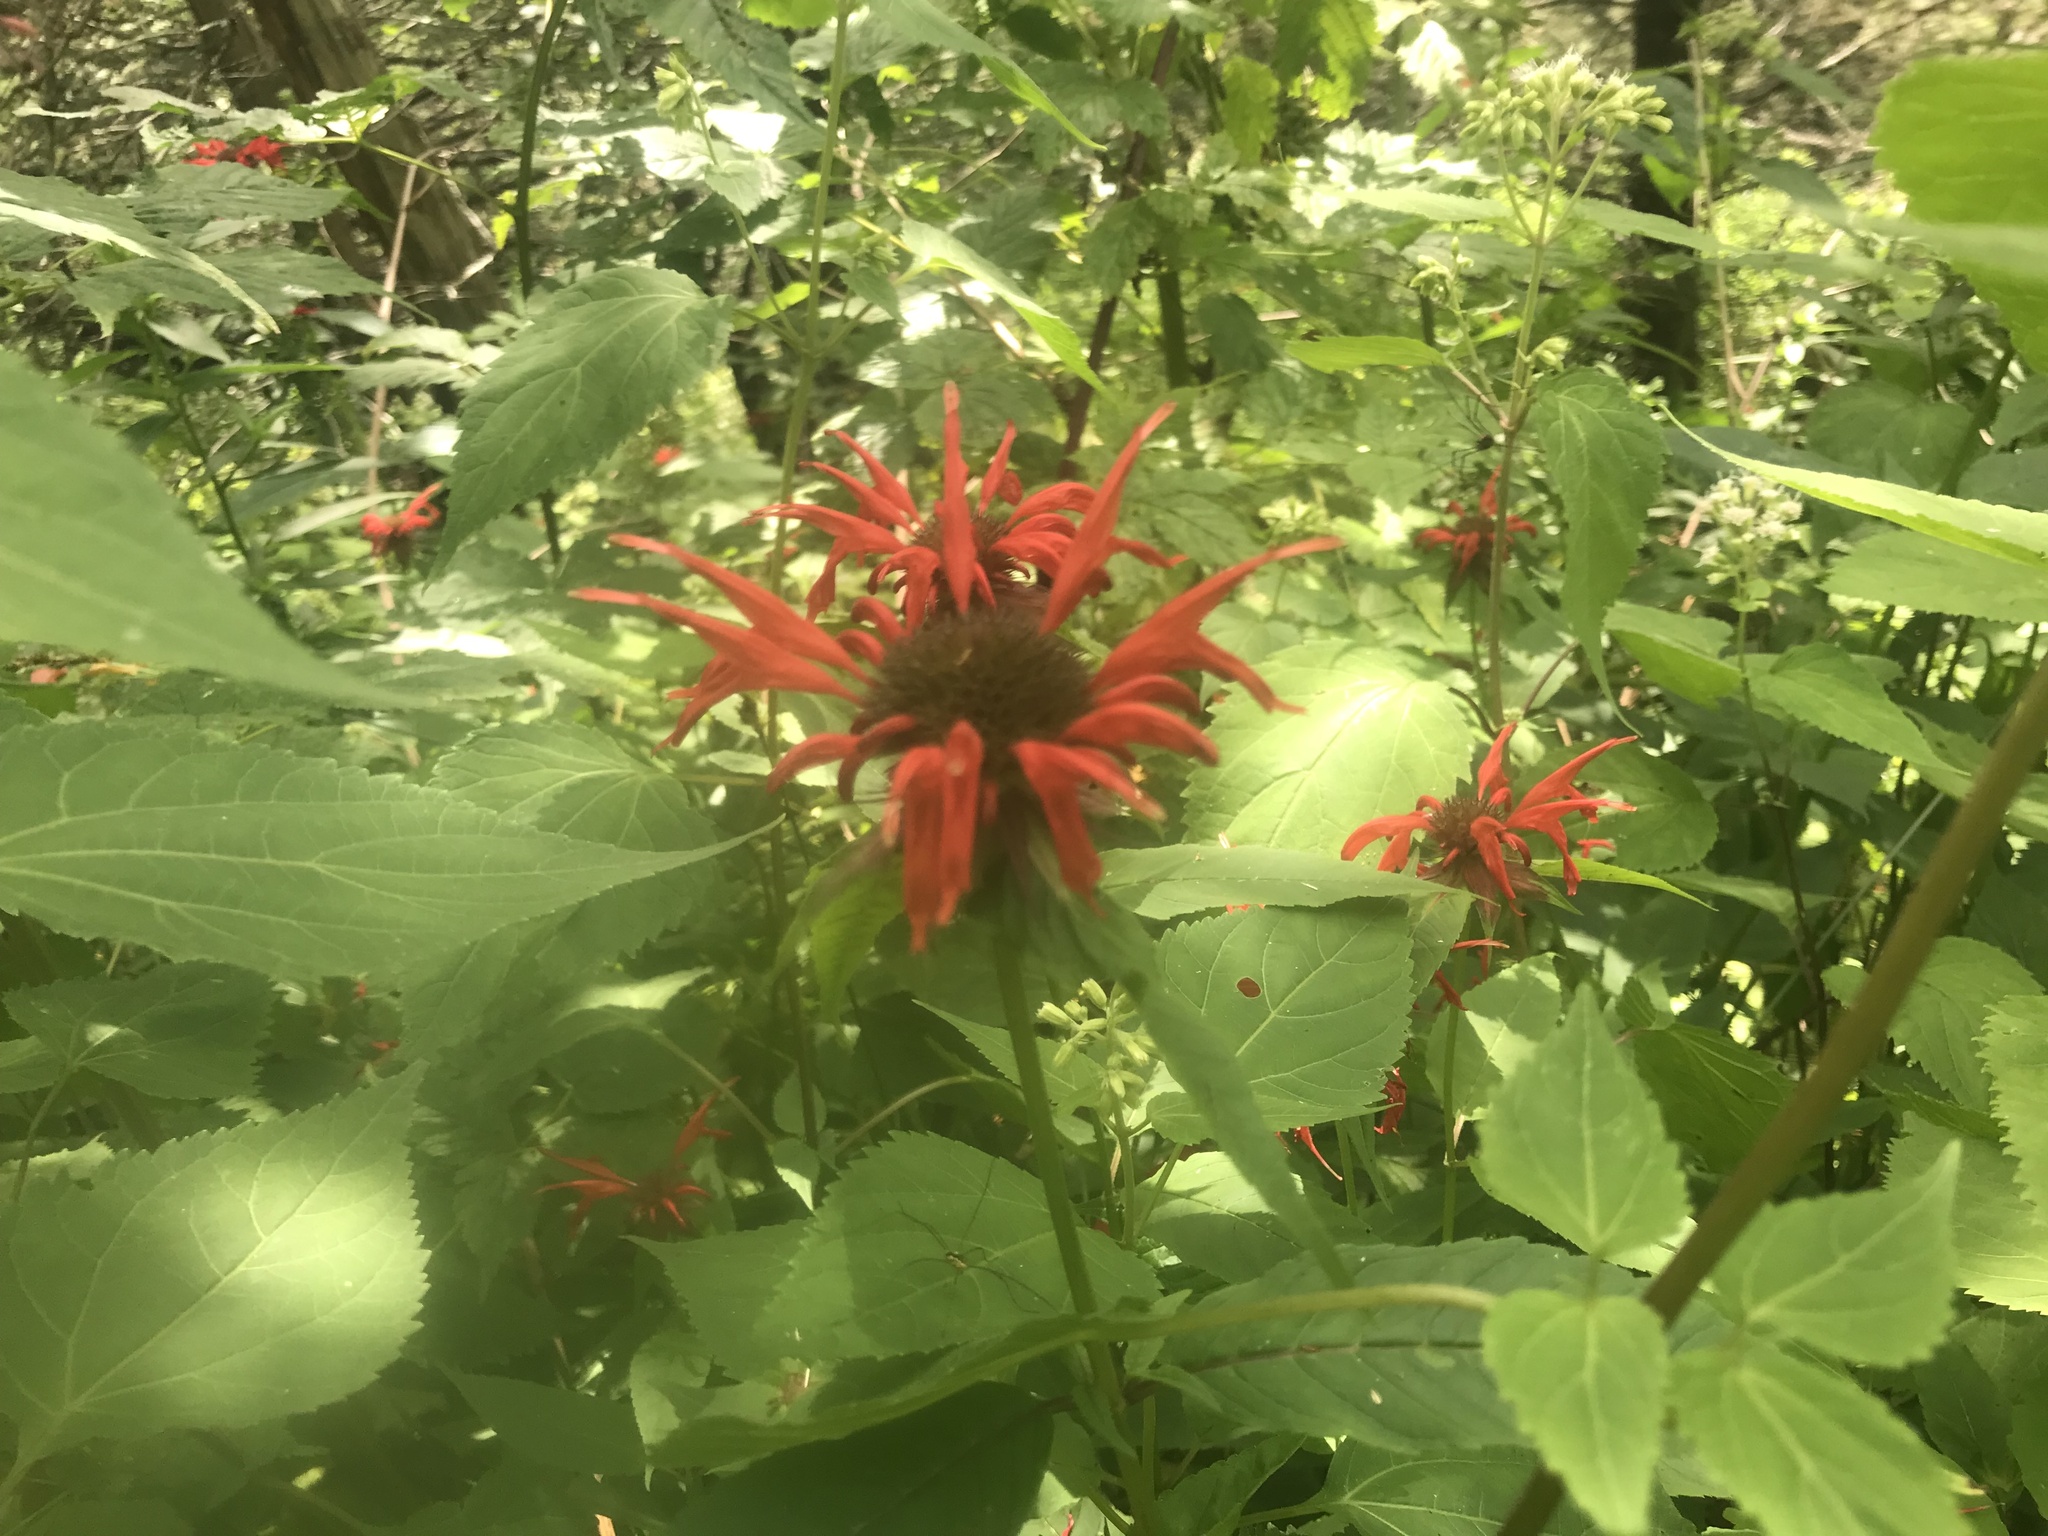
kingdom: Plantae
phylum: Tracheophyta
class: Magnoliopsida
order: Lamiales
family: Lamiaceae
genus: Monarda
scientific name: Monarda didyma
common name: Beebalm
